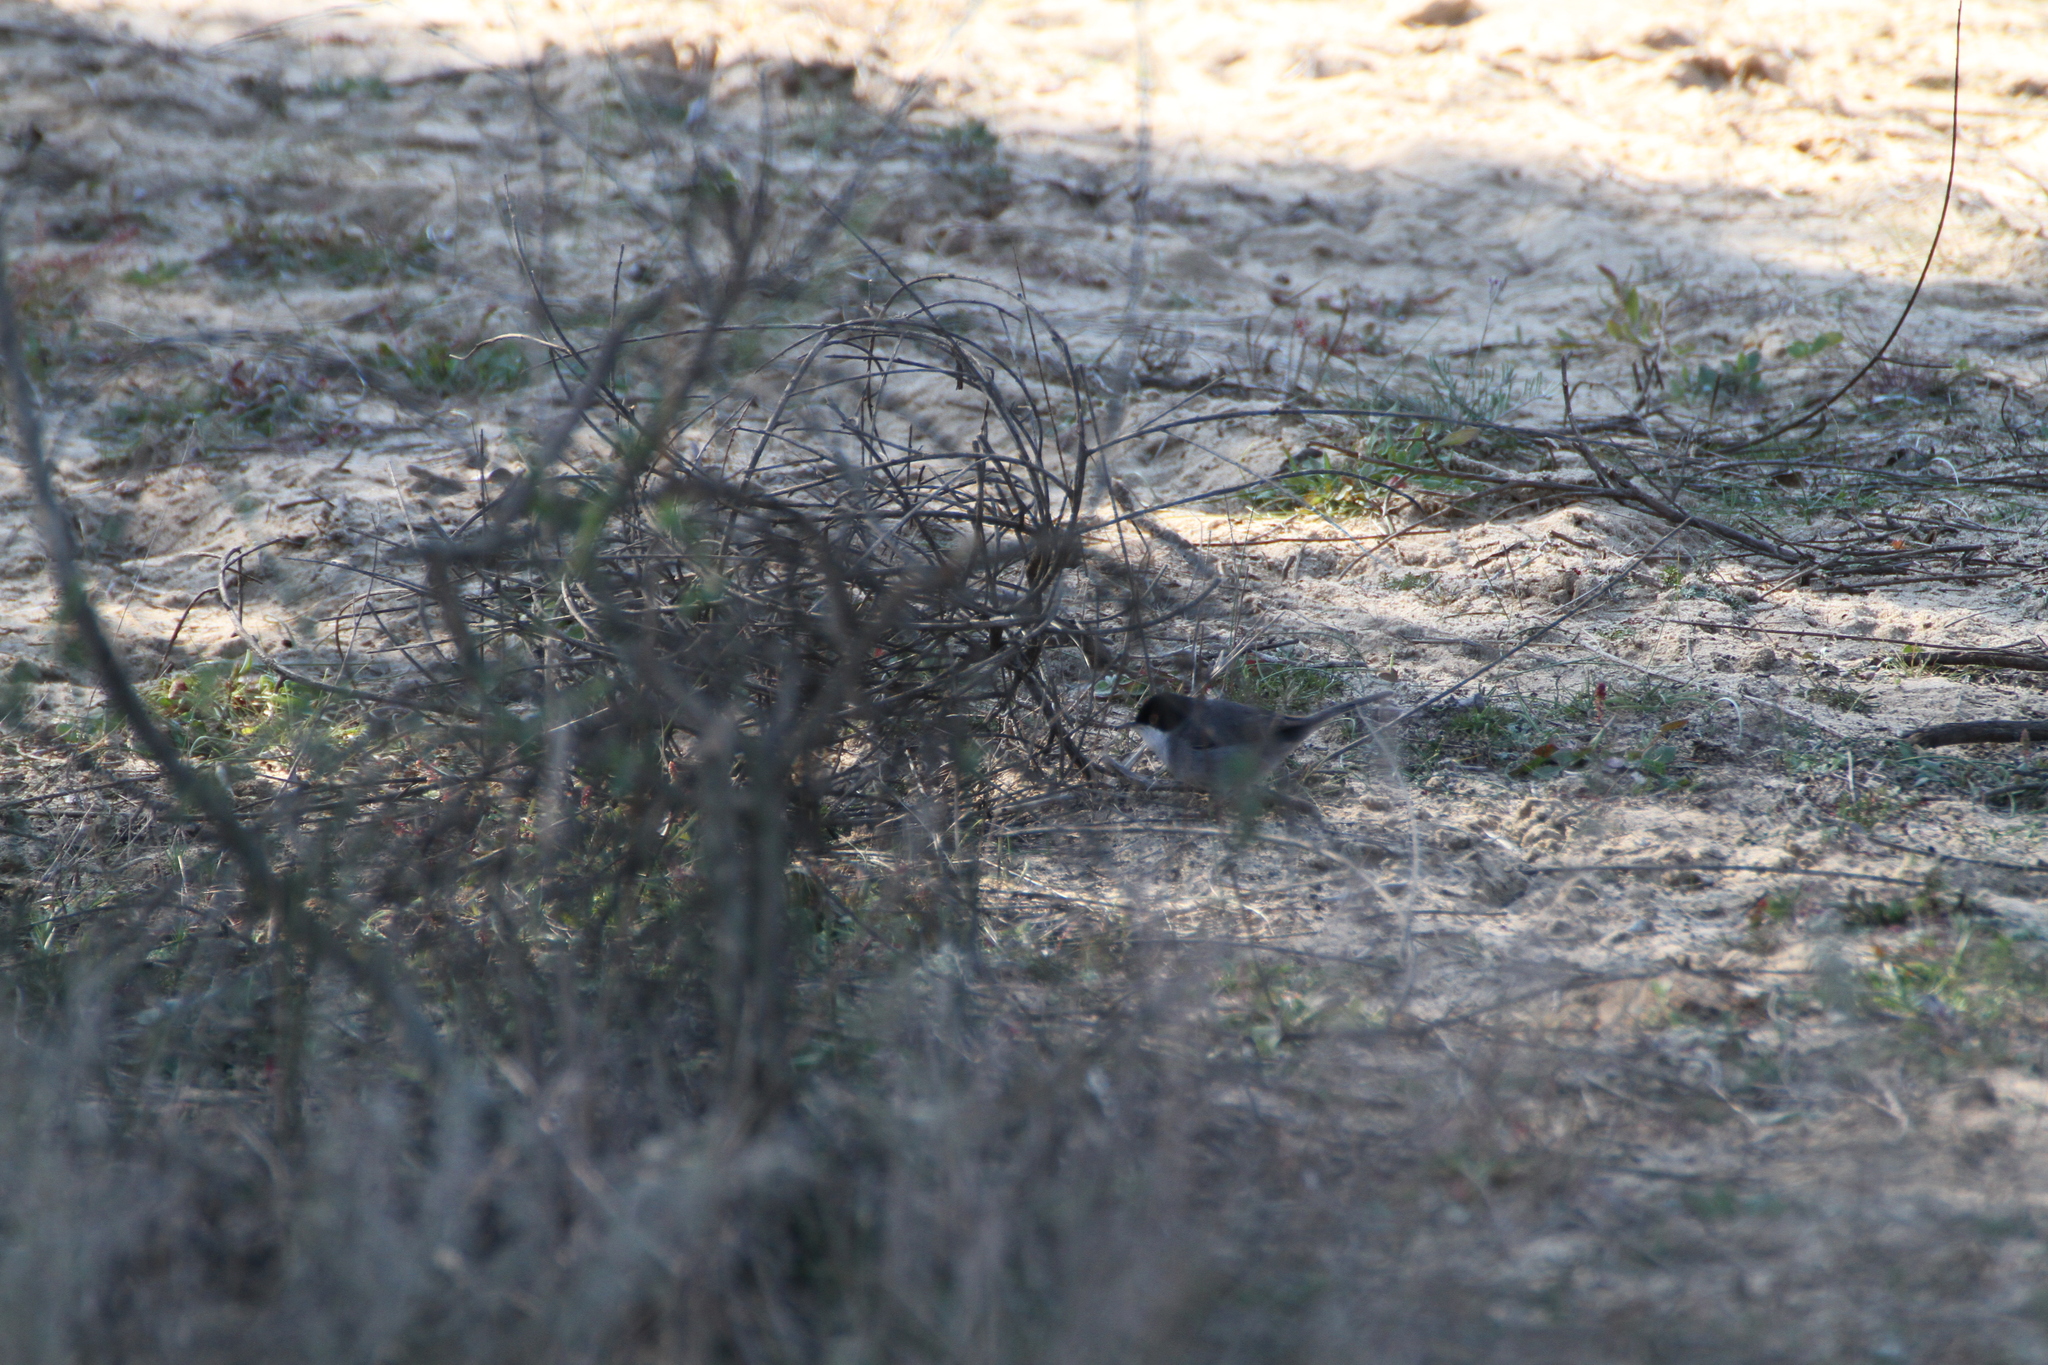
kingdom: Animalia
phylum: Chordata
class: Aves
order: Passeriformes
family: Sylviidae
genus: Curruca
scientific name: Curruca melanocephala
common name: Sardinian warbler
